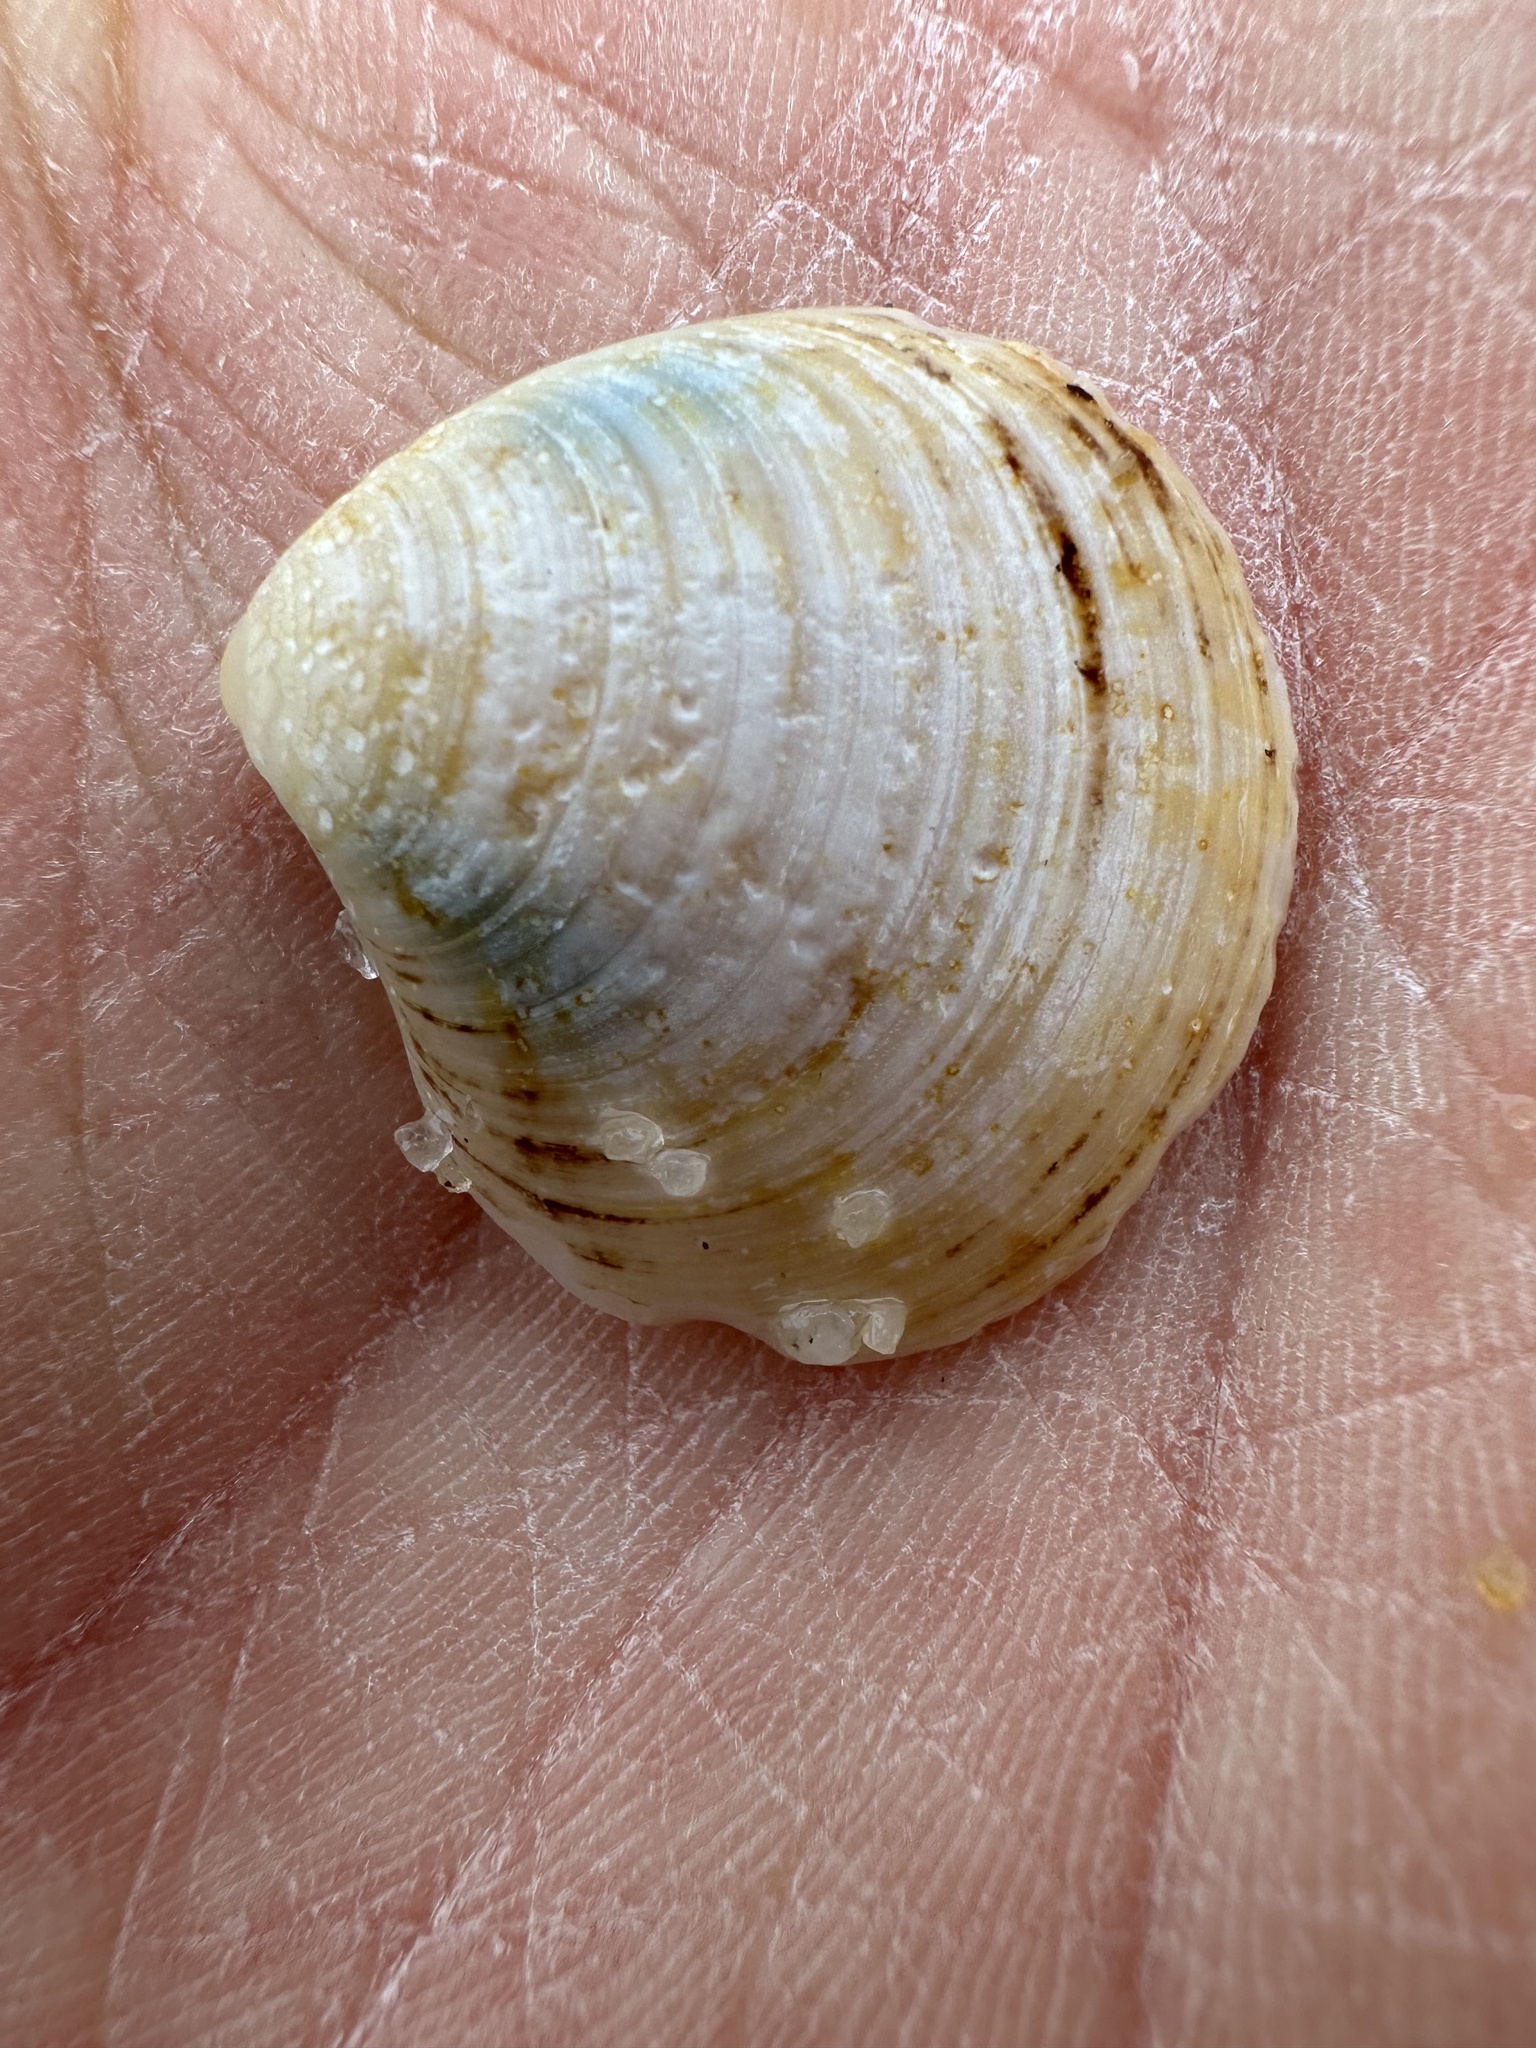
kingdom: Animalia
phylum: Mollusca
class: Bivalvia
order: Cardiida
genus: Isocrassina
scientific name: Isocrassina
